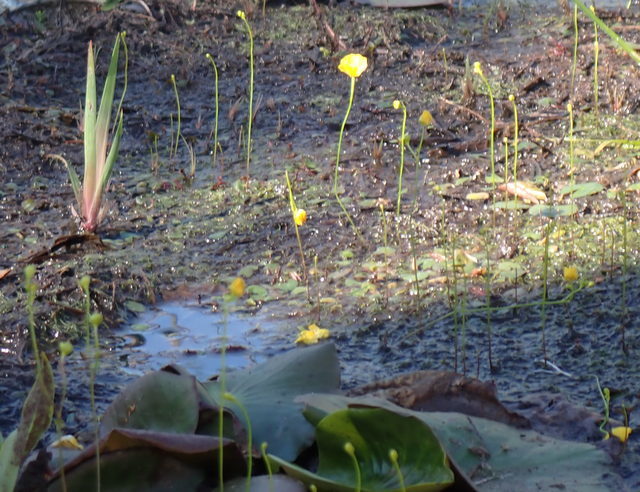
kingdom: Plantae
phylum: Tracheophyta
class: Magnoliopsida
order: Lamiales
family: Lentibulariaceae
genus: Utricularia
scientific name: Utricularia gibba
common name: Humped bladderwort
